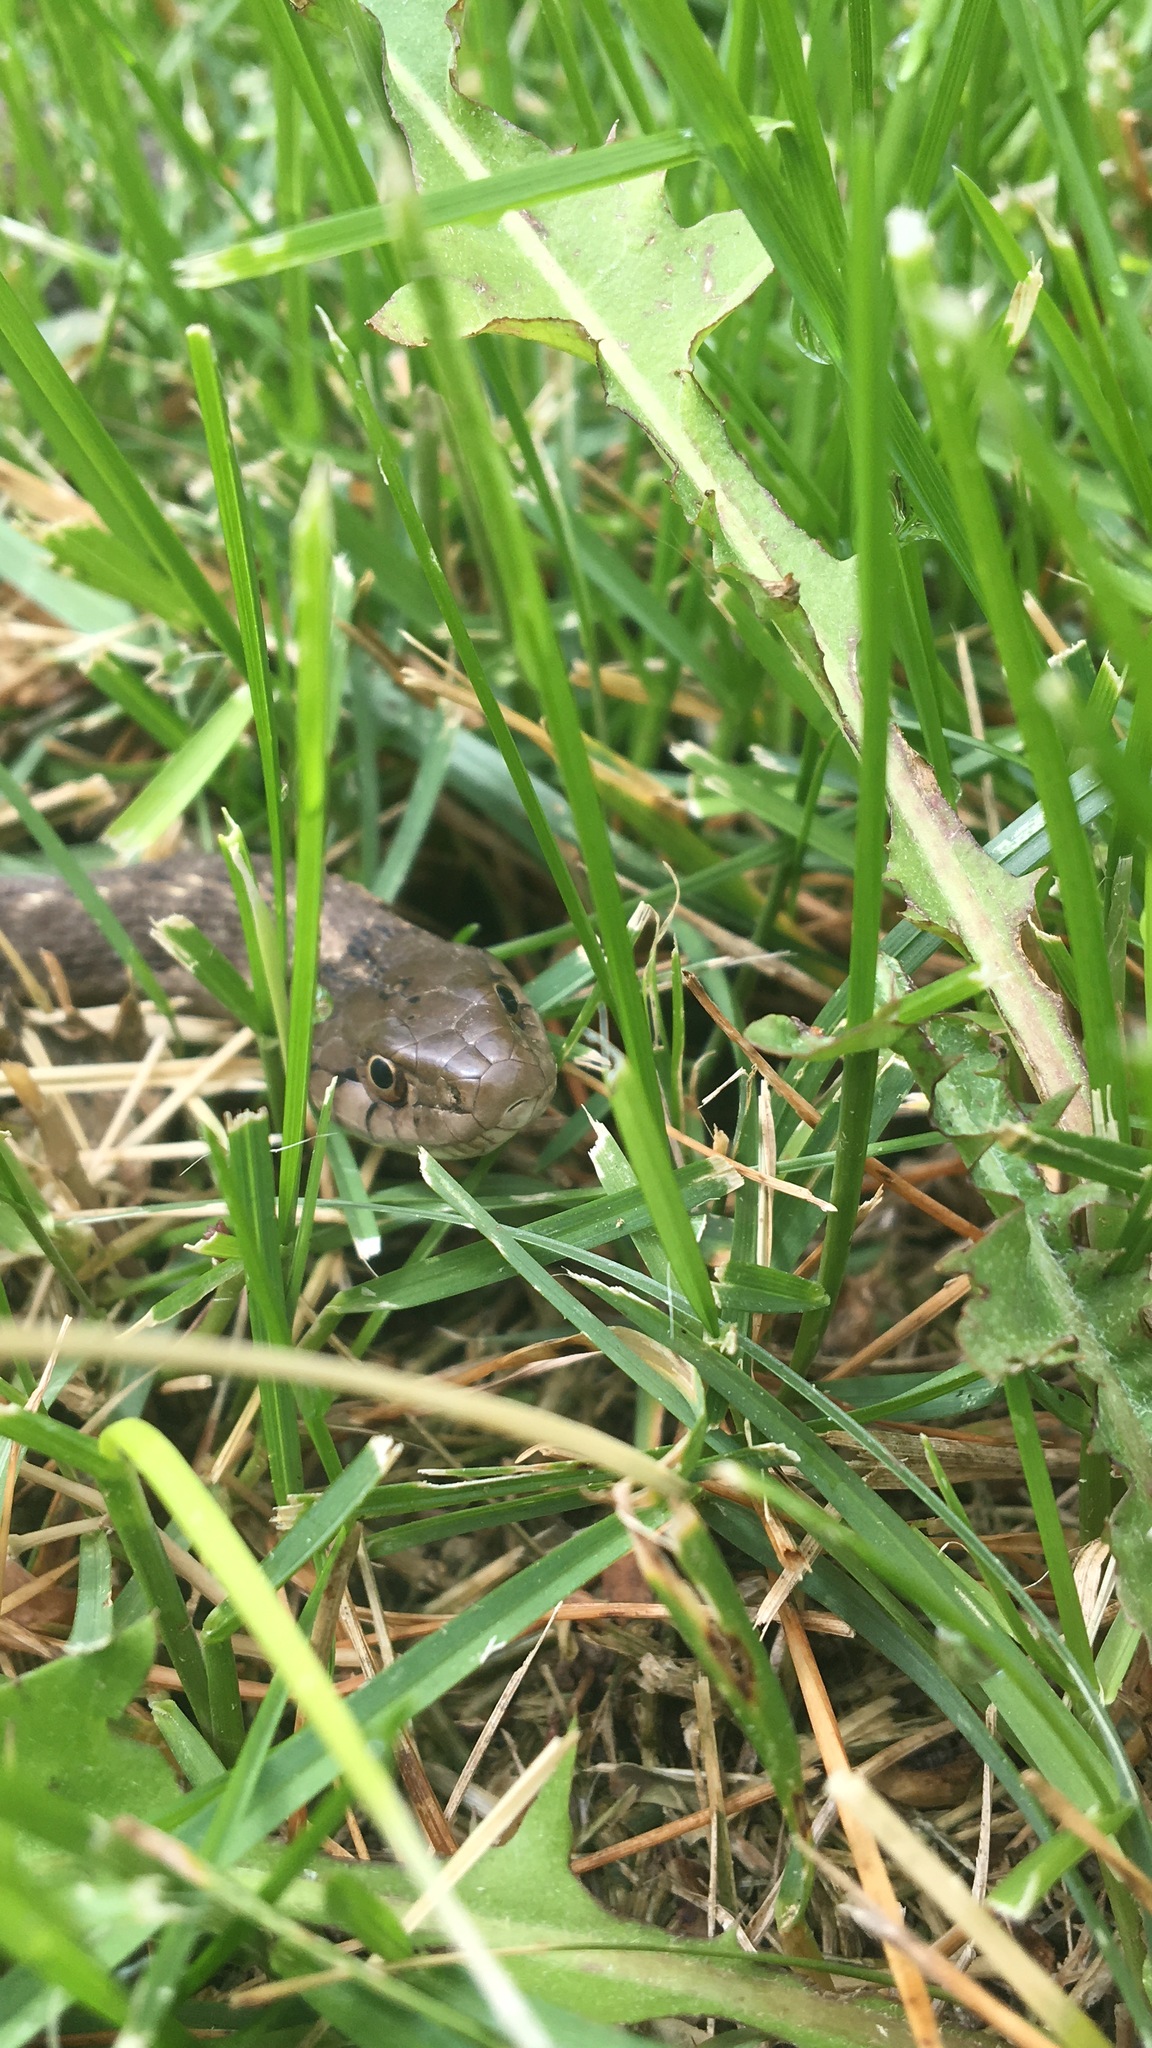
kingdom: Animalia
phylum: Chordata
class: Squamata
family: Colubridae
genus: Thamnophis
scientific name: Thamnophis elegans
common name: Western terrestrial garter snake
